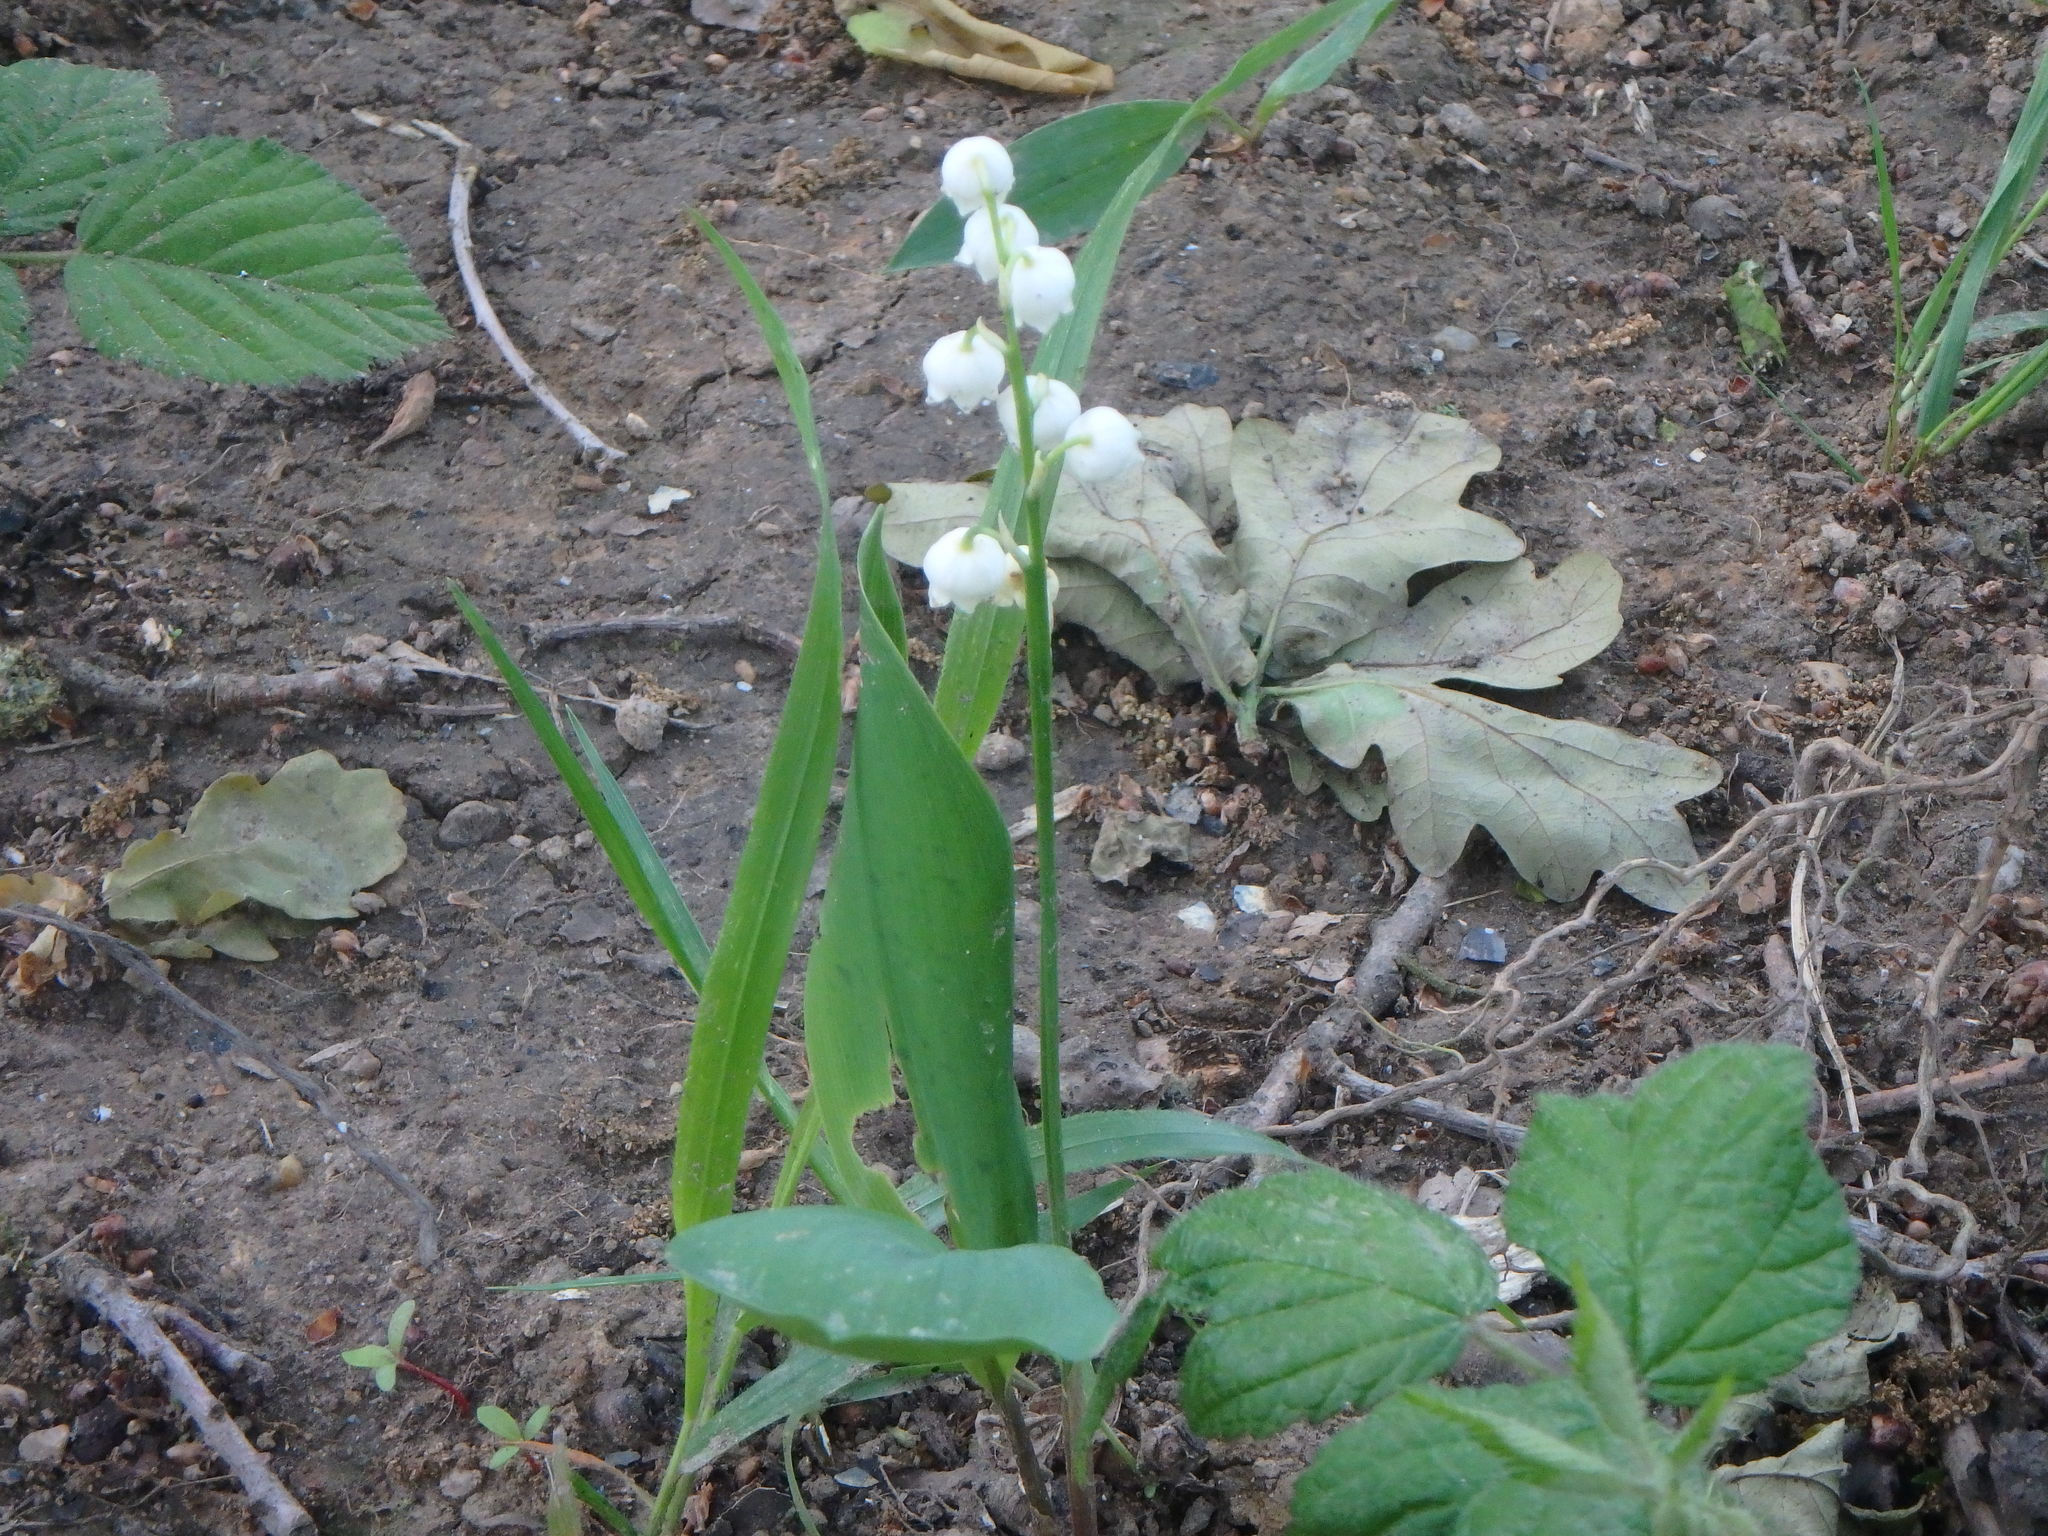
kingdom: Plantae
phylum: Tracheophyta
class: Liliopsida
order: Asparagales
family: Asparagaceae
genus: Convallaria
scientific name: Convallaria majalis
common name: Lily-of-the-valley
